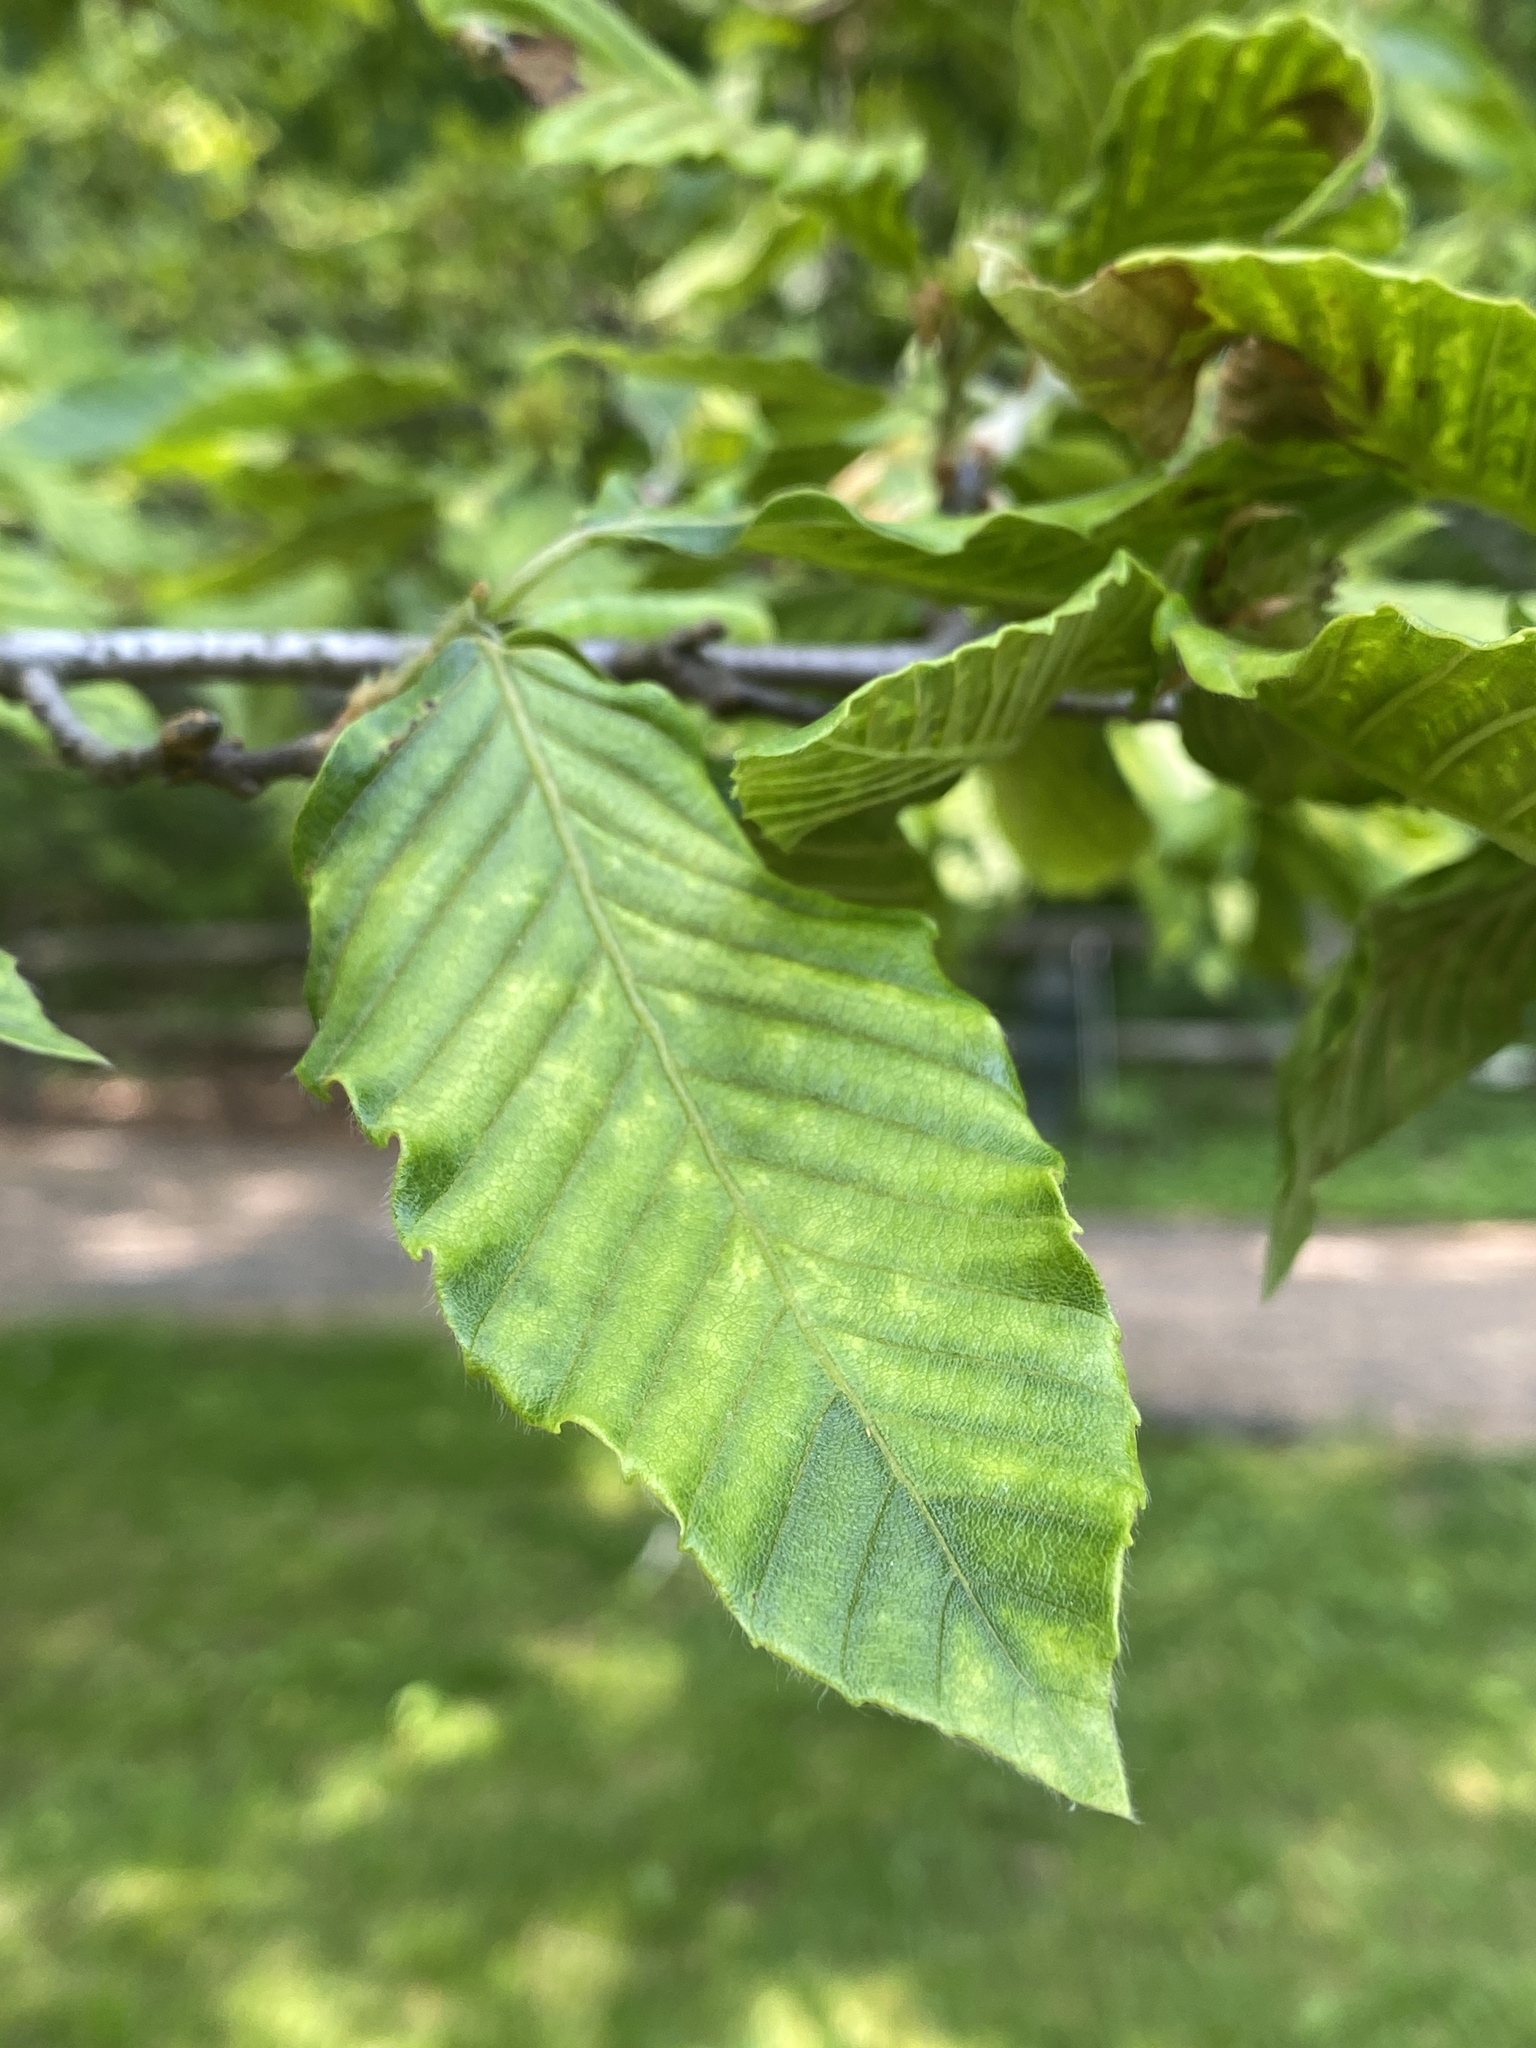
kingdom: Animalia
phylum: Nematoda
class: Chromadorea
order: Rhabditida
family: Anguinidae
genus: Litylenchus
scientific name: Litylenchus crenatae
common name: Beech leaf disease
